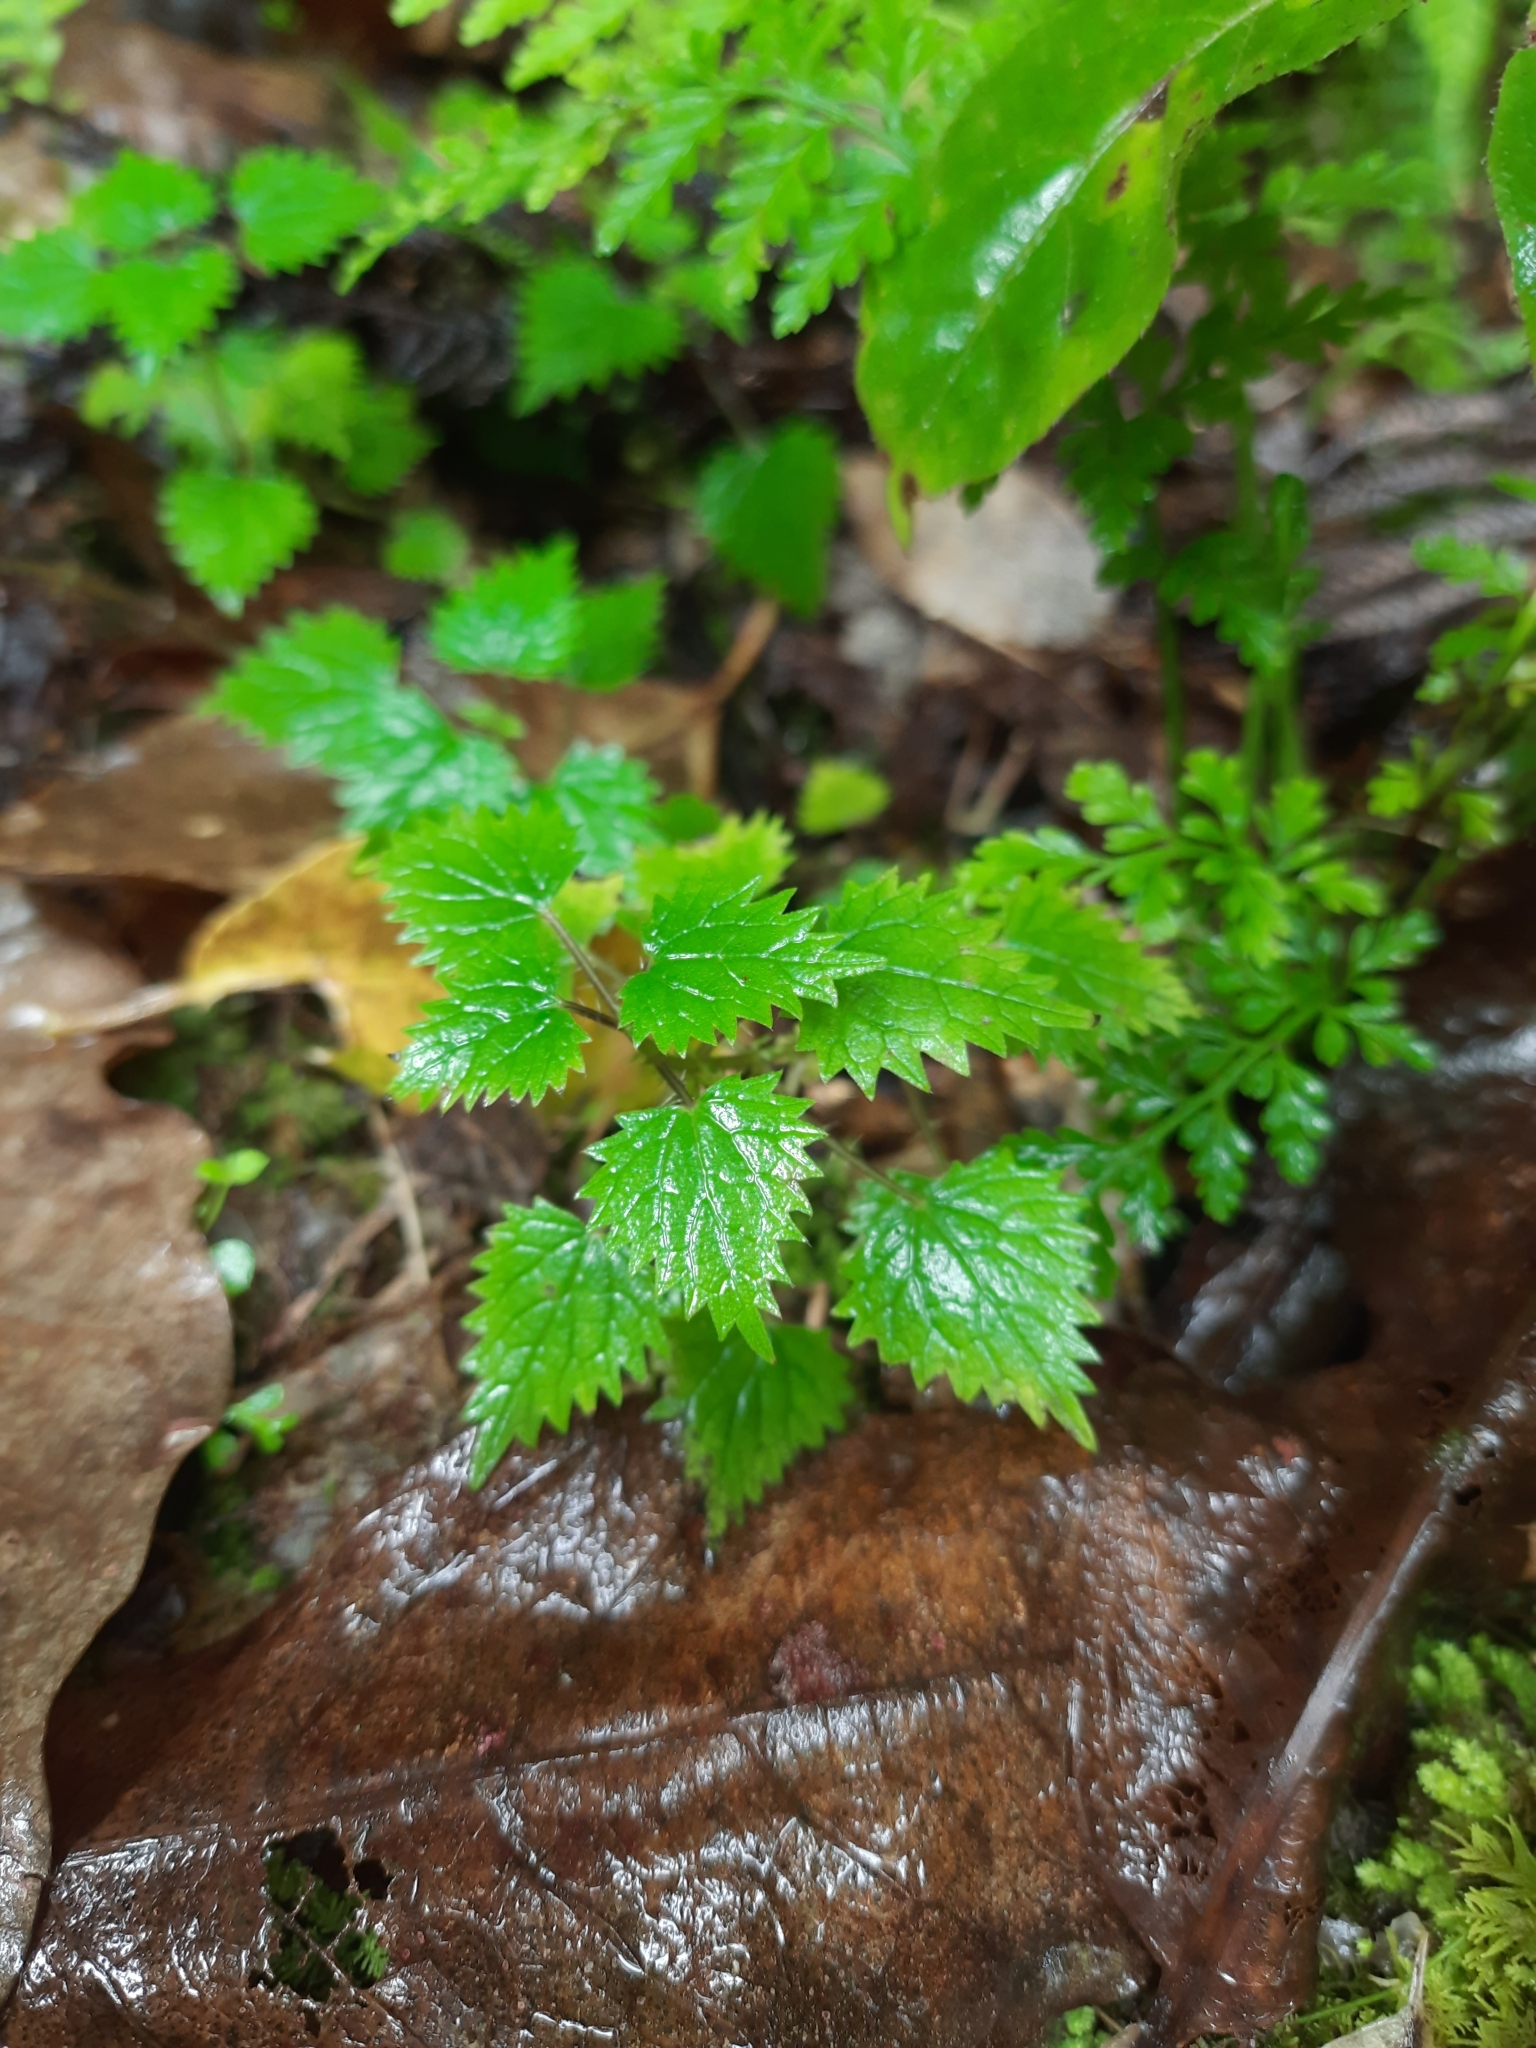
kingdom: Plantae
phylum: Tracheophyta
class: Magnoliopsida
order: Rosales
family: Urticaceae
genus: Urtica
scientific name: Urtica sykesii
